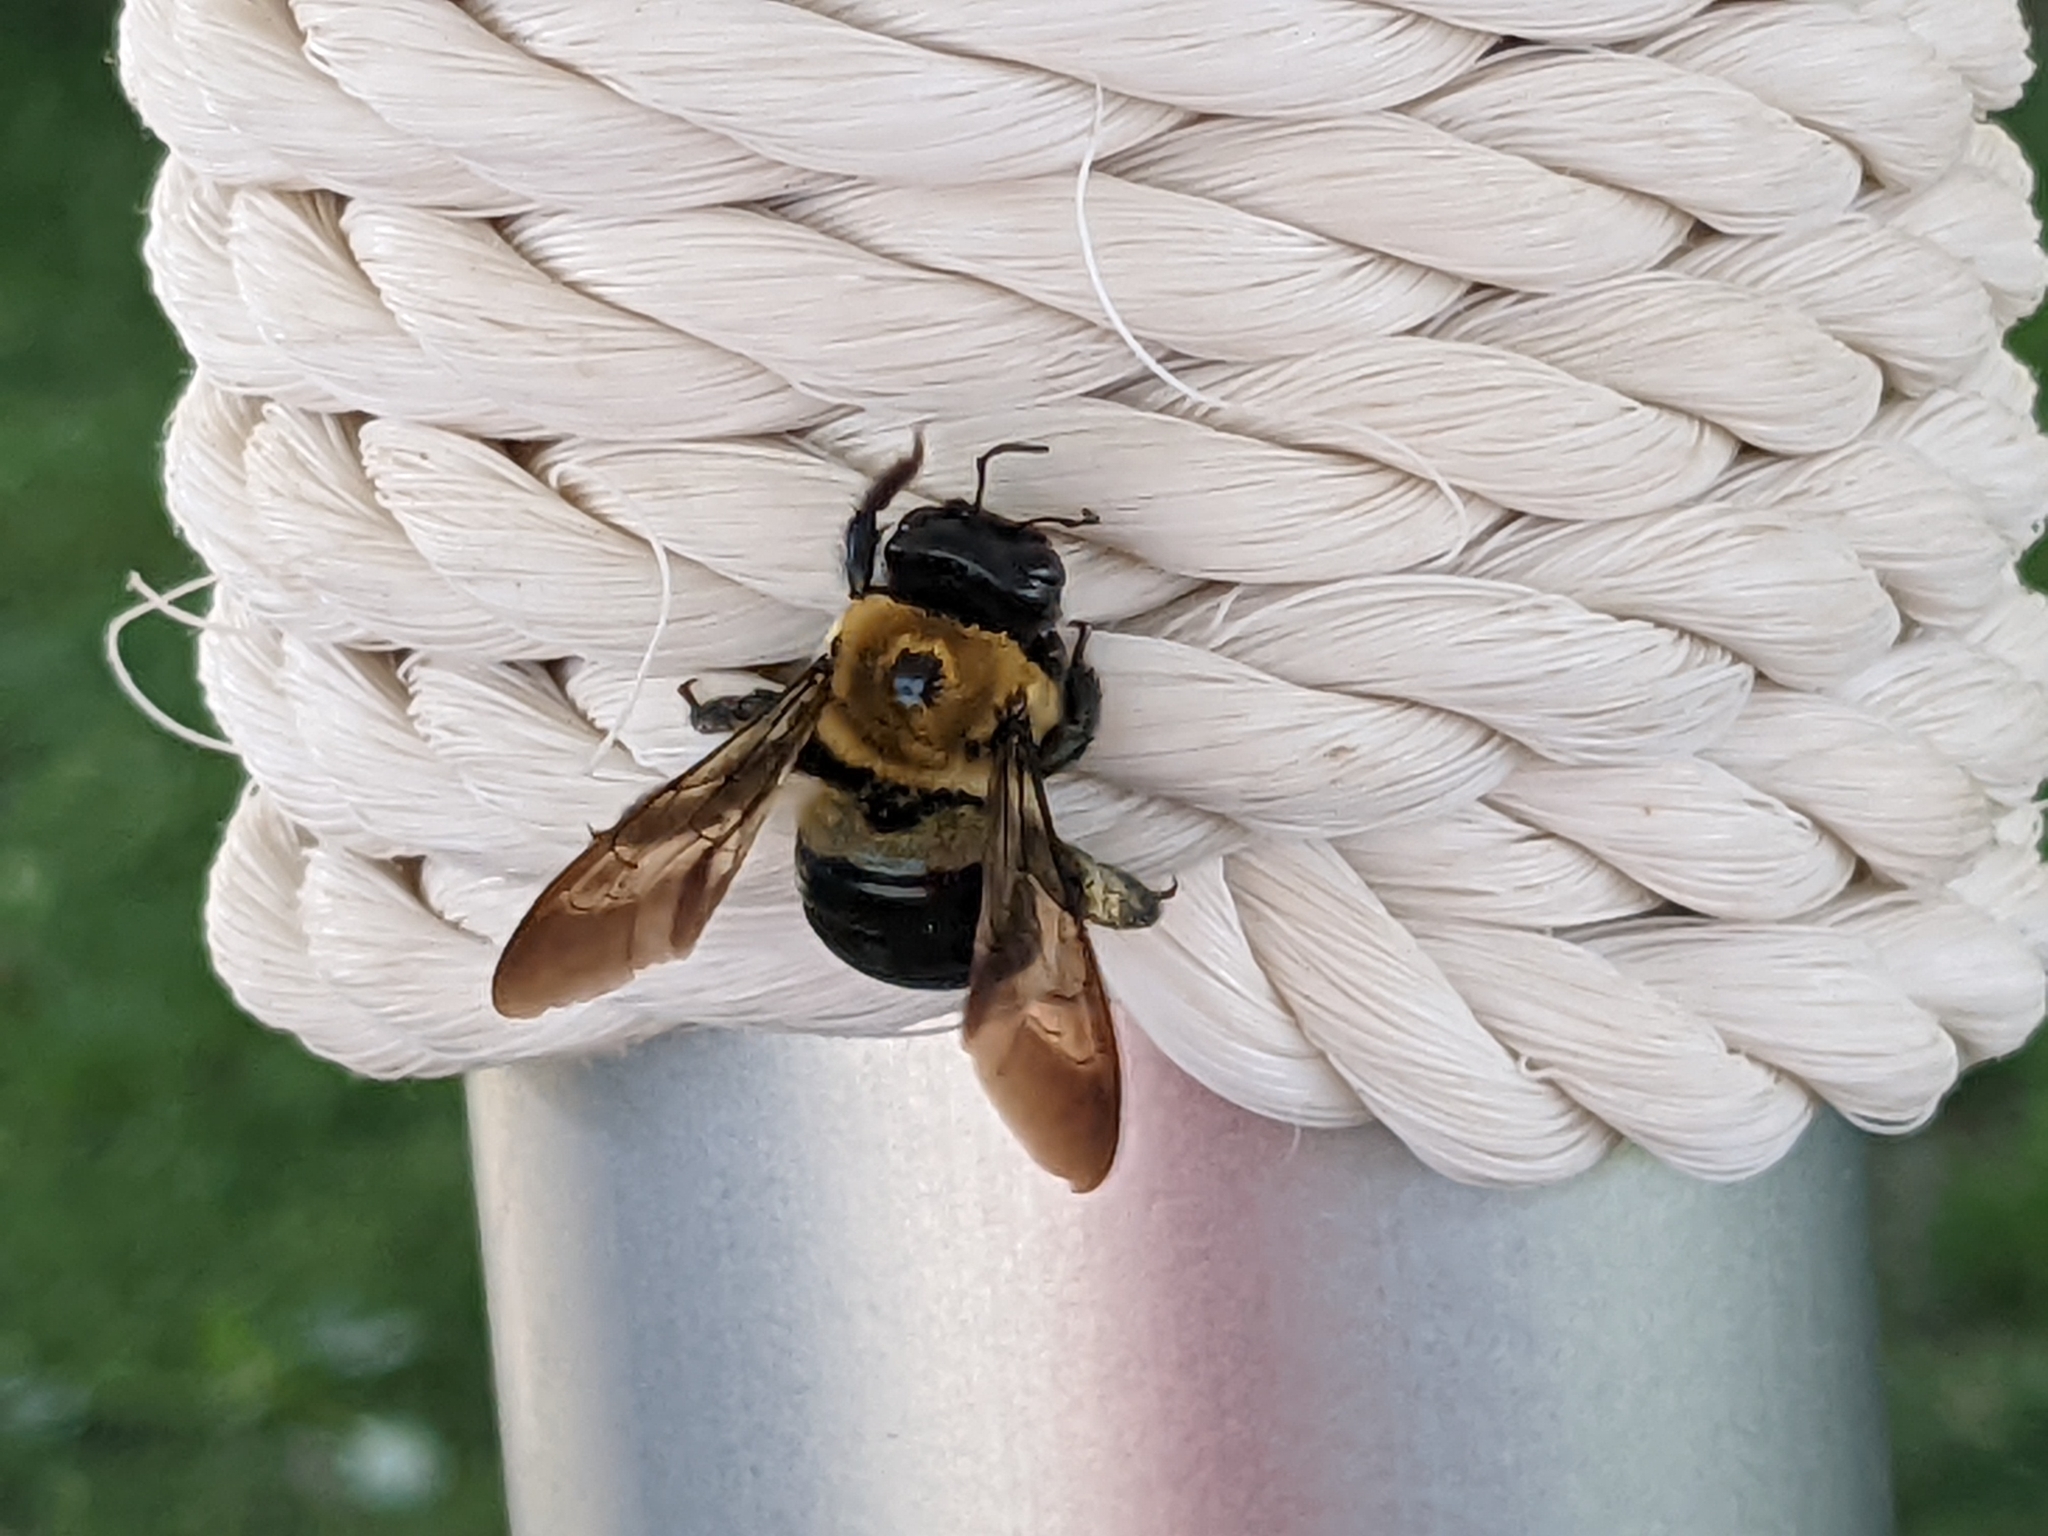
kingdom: Animalia
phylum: Arthropoda
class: Insecta
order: Hymenoptera
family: Apidae
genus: Xylocopa
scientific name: Xylocopa virginica
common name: Carpenter bee
